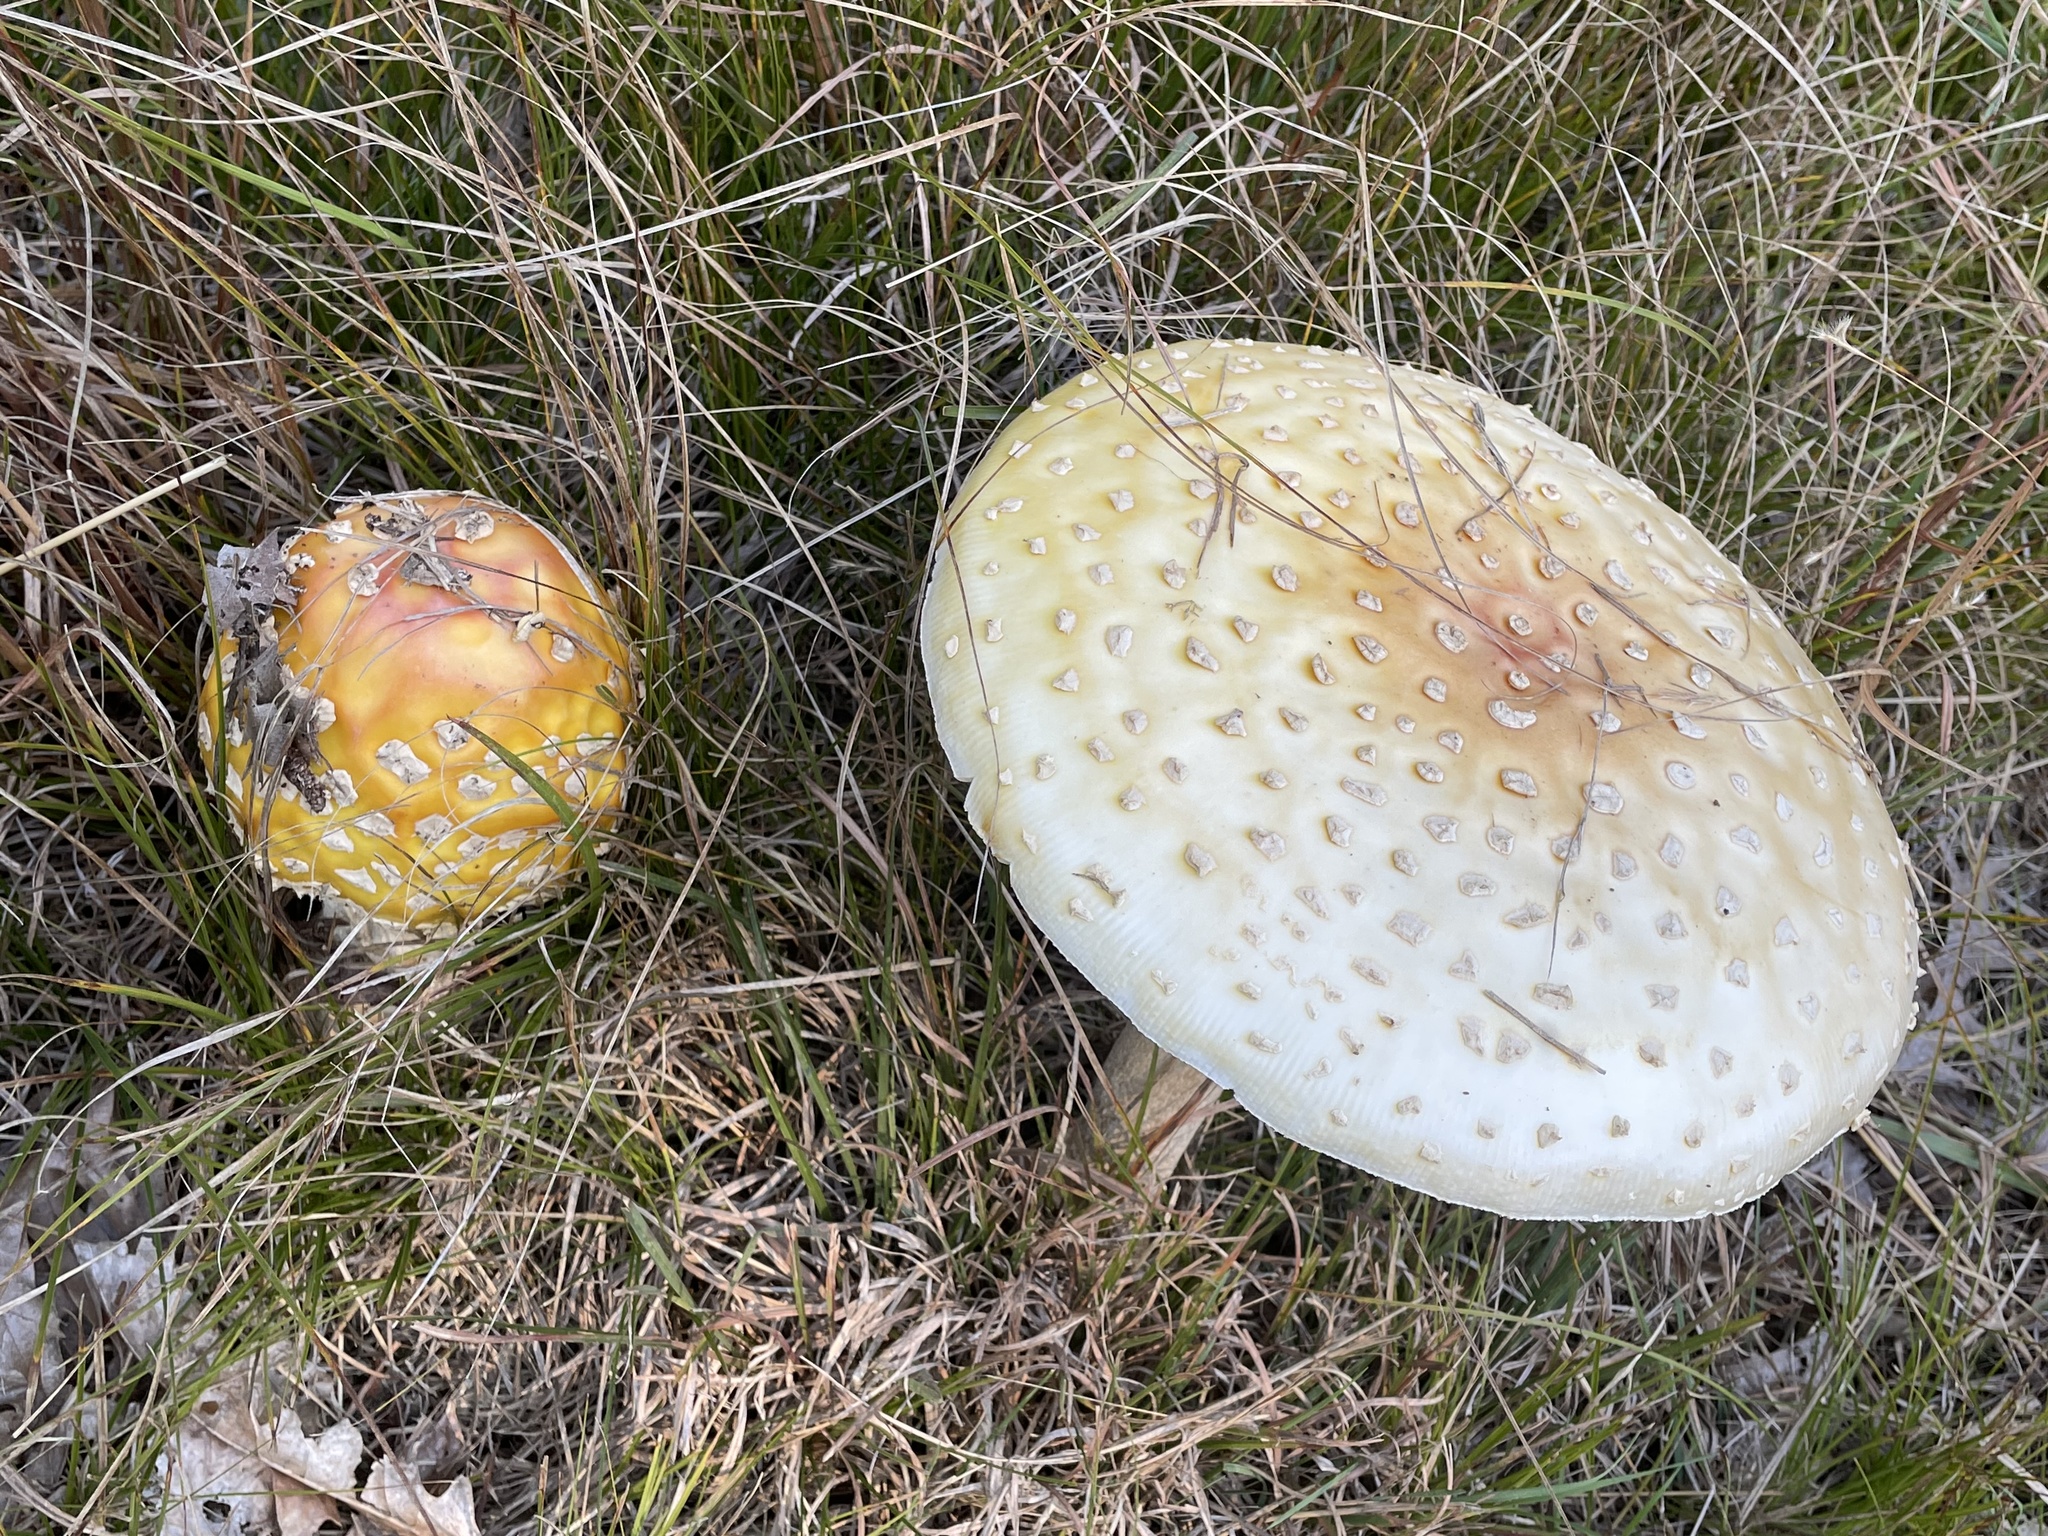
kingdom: Fungi
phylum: Basidiomycota
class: Agaricomycetes
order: Agaricales
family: Amanitaceae
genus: Amanita
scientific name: Amanita muscaria
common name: Fly agaric
